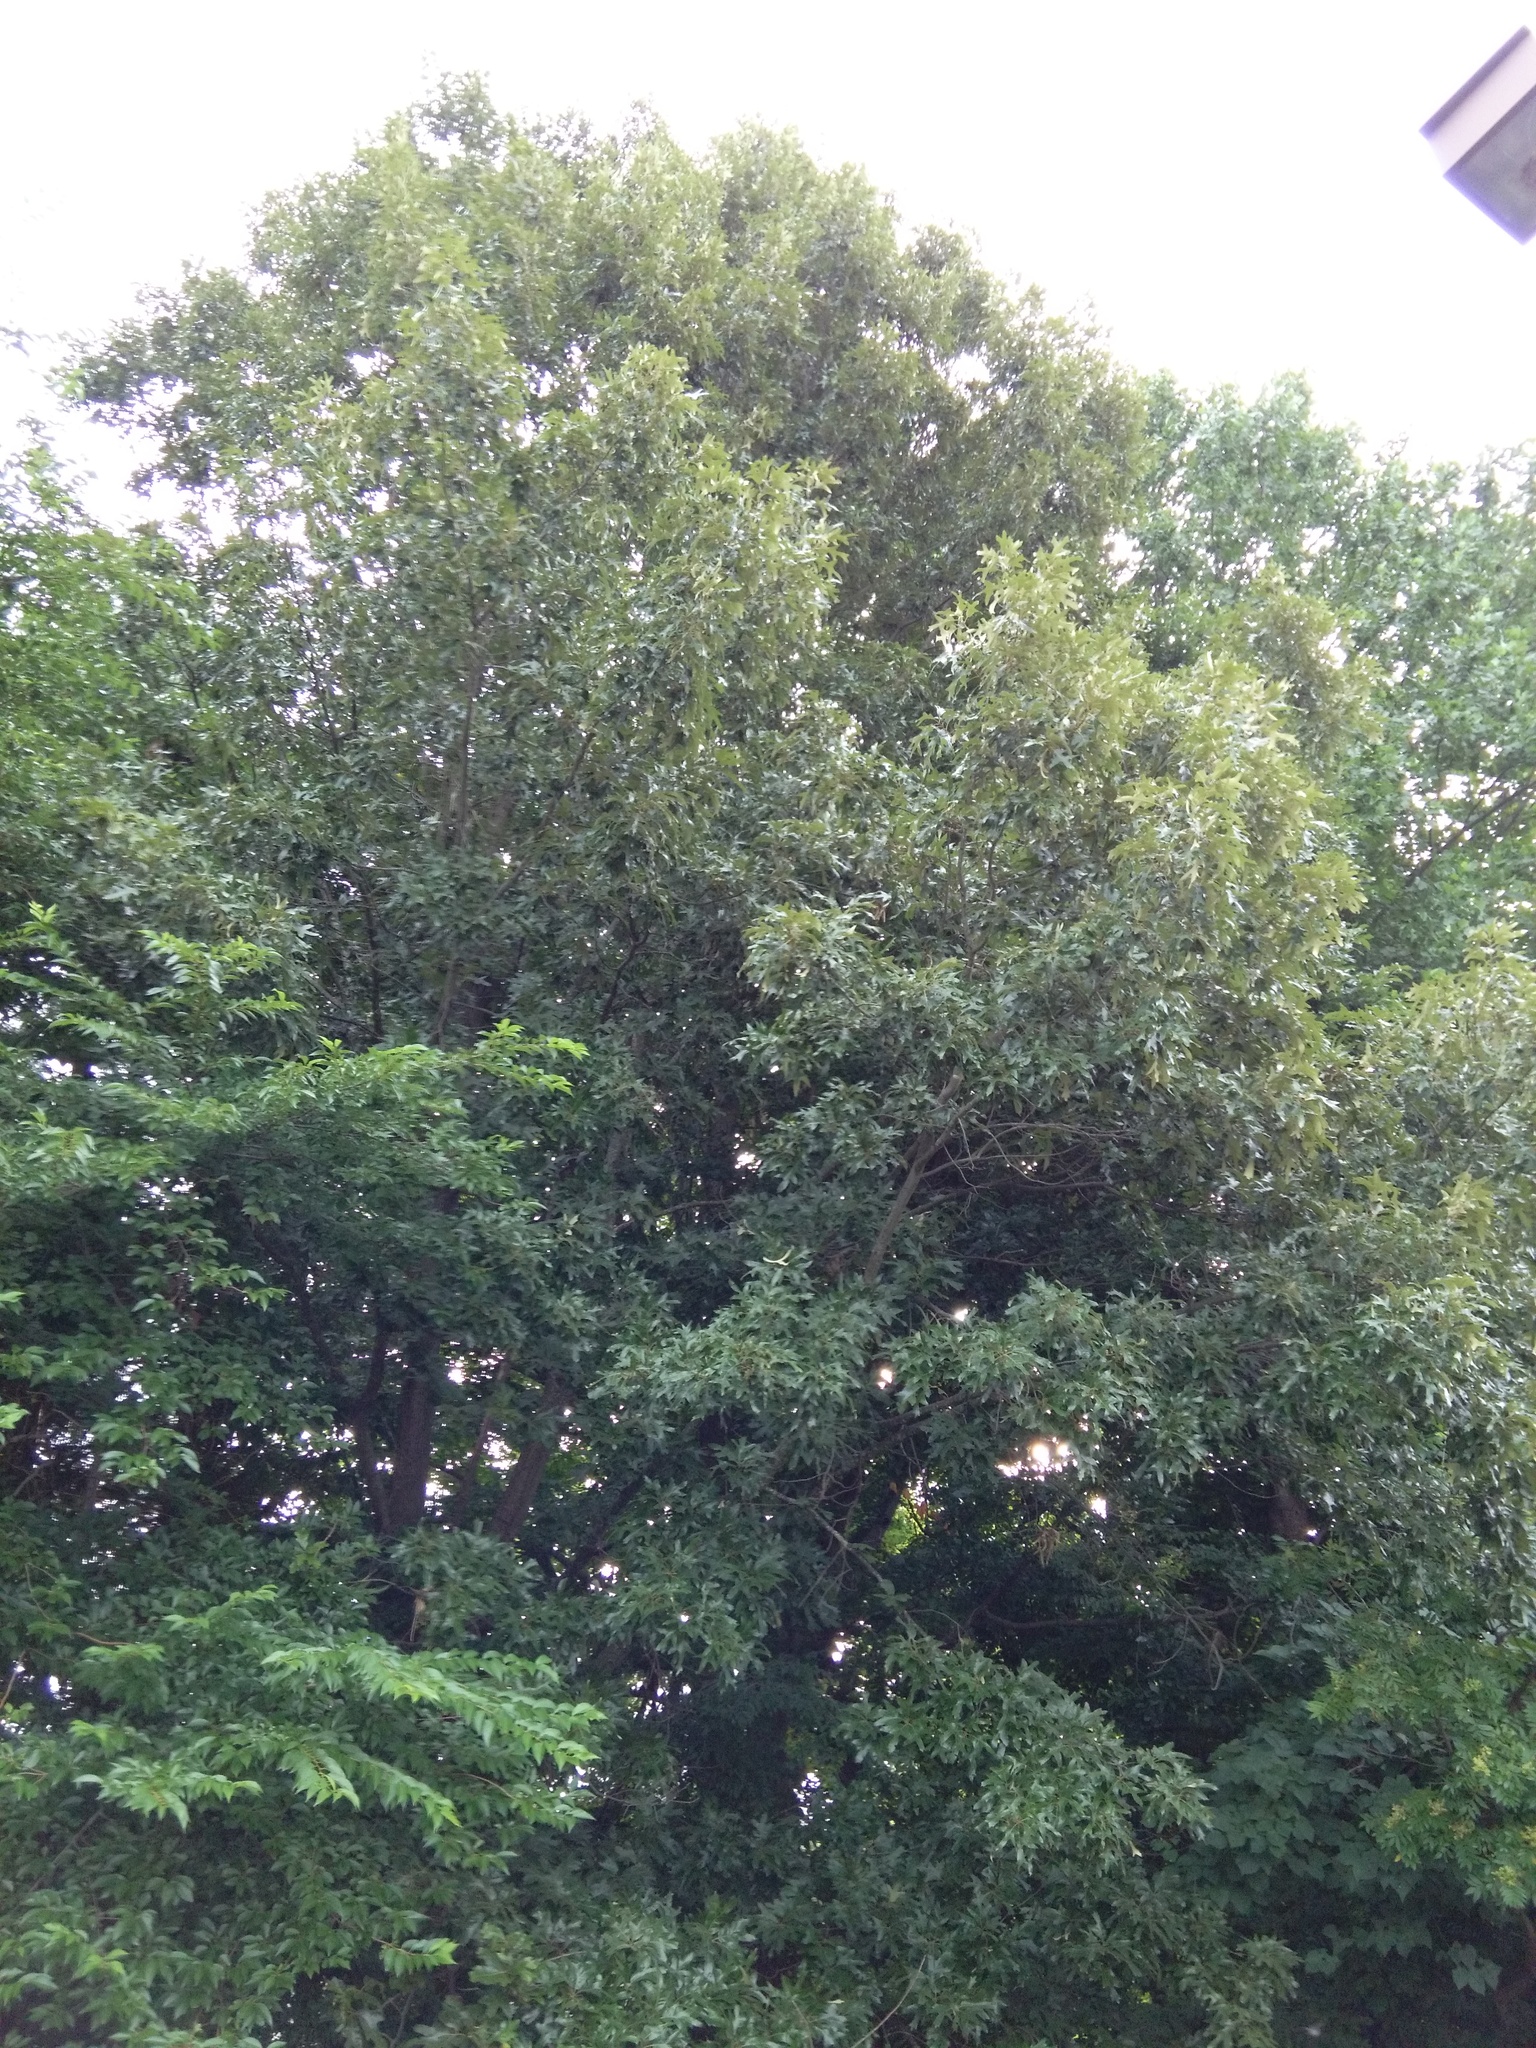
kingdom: Plantae
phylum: Tracheophyta
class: Magnoliopsida
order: Fagales
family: Fagaceae
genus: Quercus
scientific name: Quercus falcata
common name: Southern red oak
